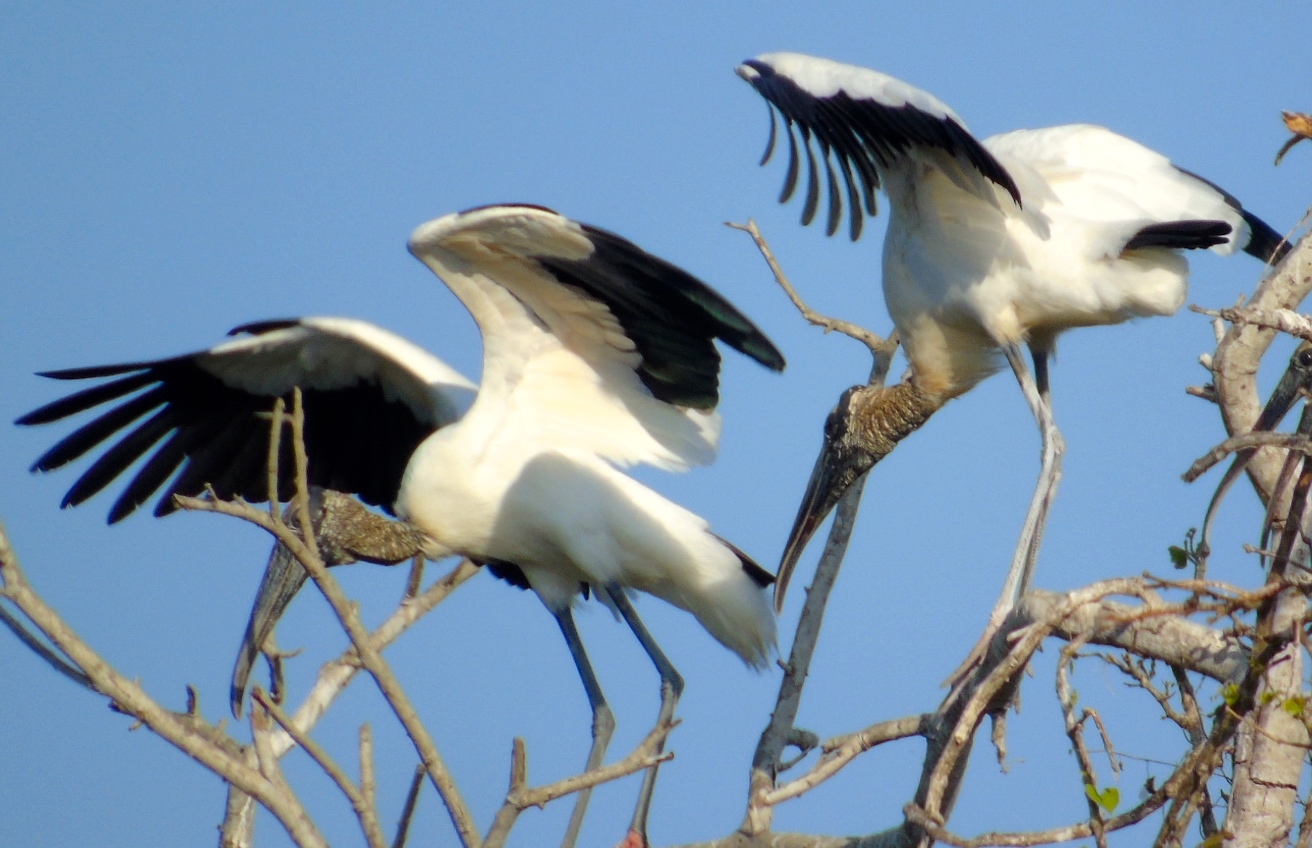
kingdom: Animalia
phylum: Chordata
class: Aves
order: Ciconiiformes
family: Ciconiidae
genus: Mycteria
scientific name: Mycteria americana
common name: Wood stork
